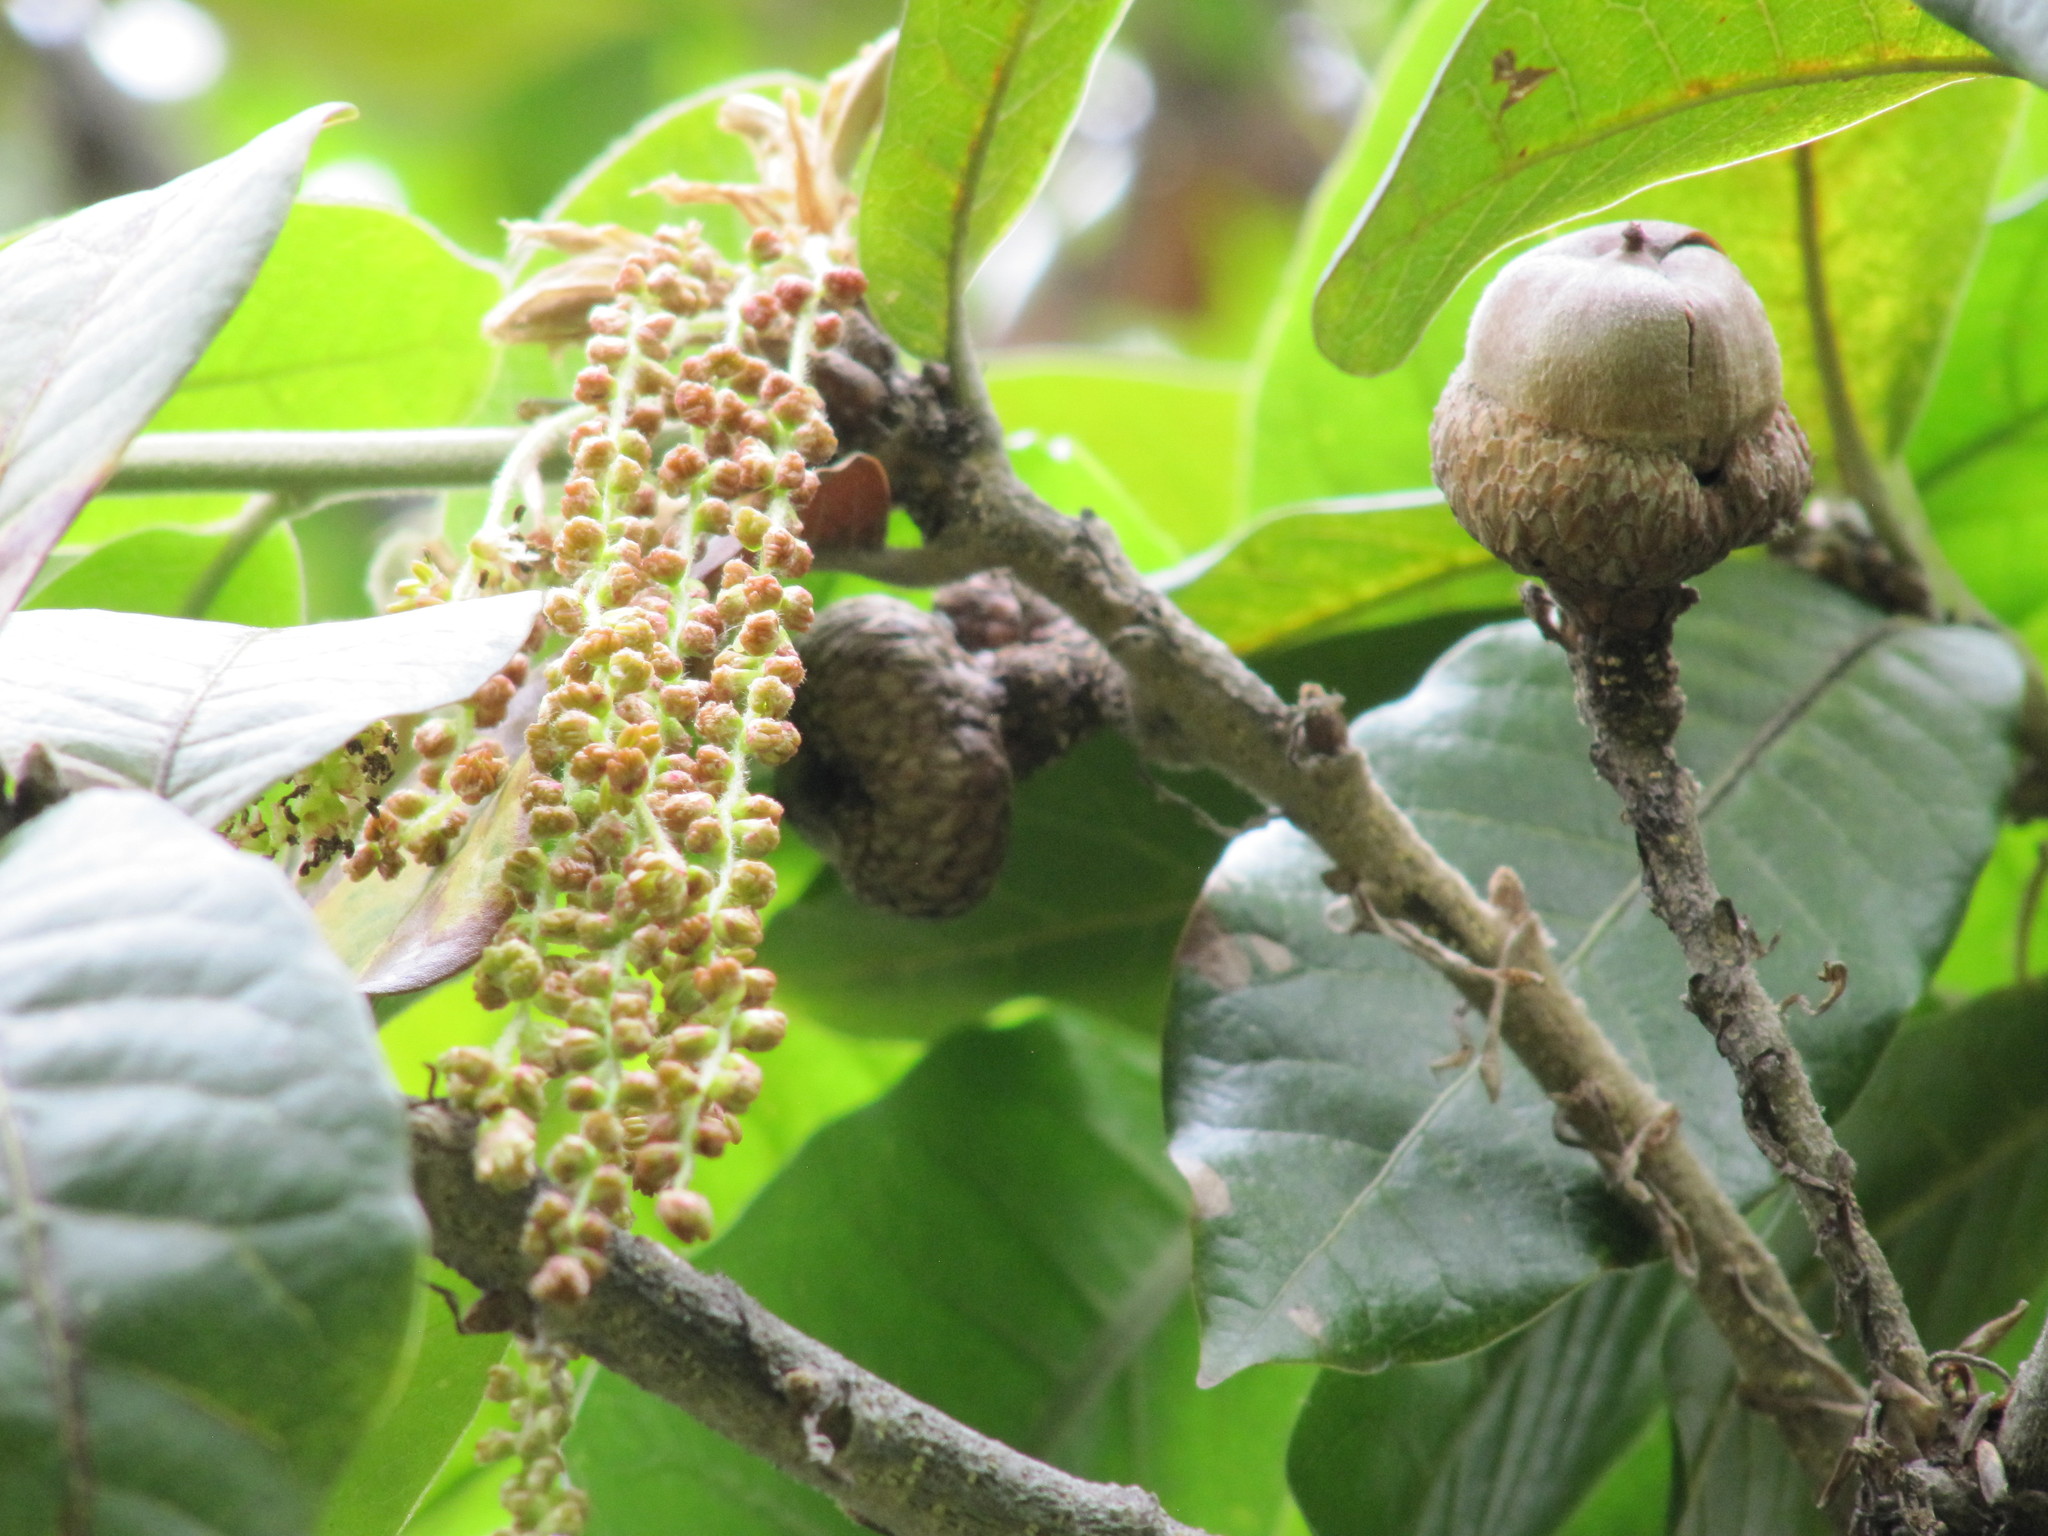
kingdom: Plantae
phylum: Tracheophyta
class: Magnoliopsida
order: Fagales
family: Fagaceae
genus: Quercus
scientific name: Quercus humboldtii
